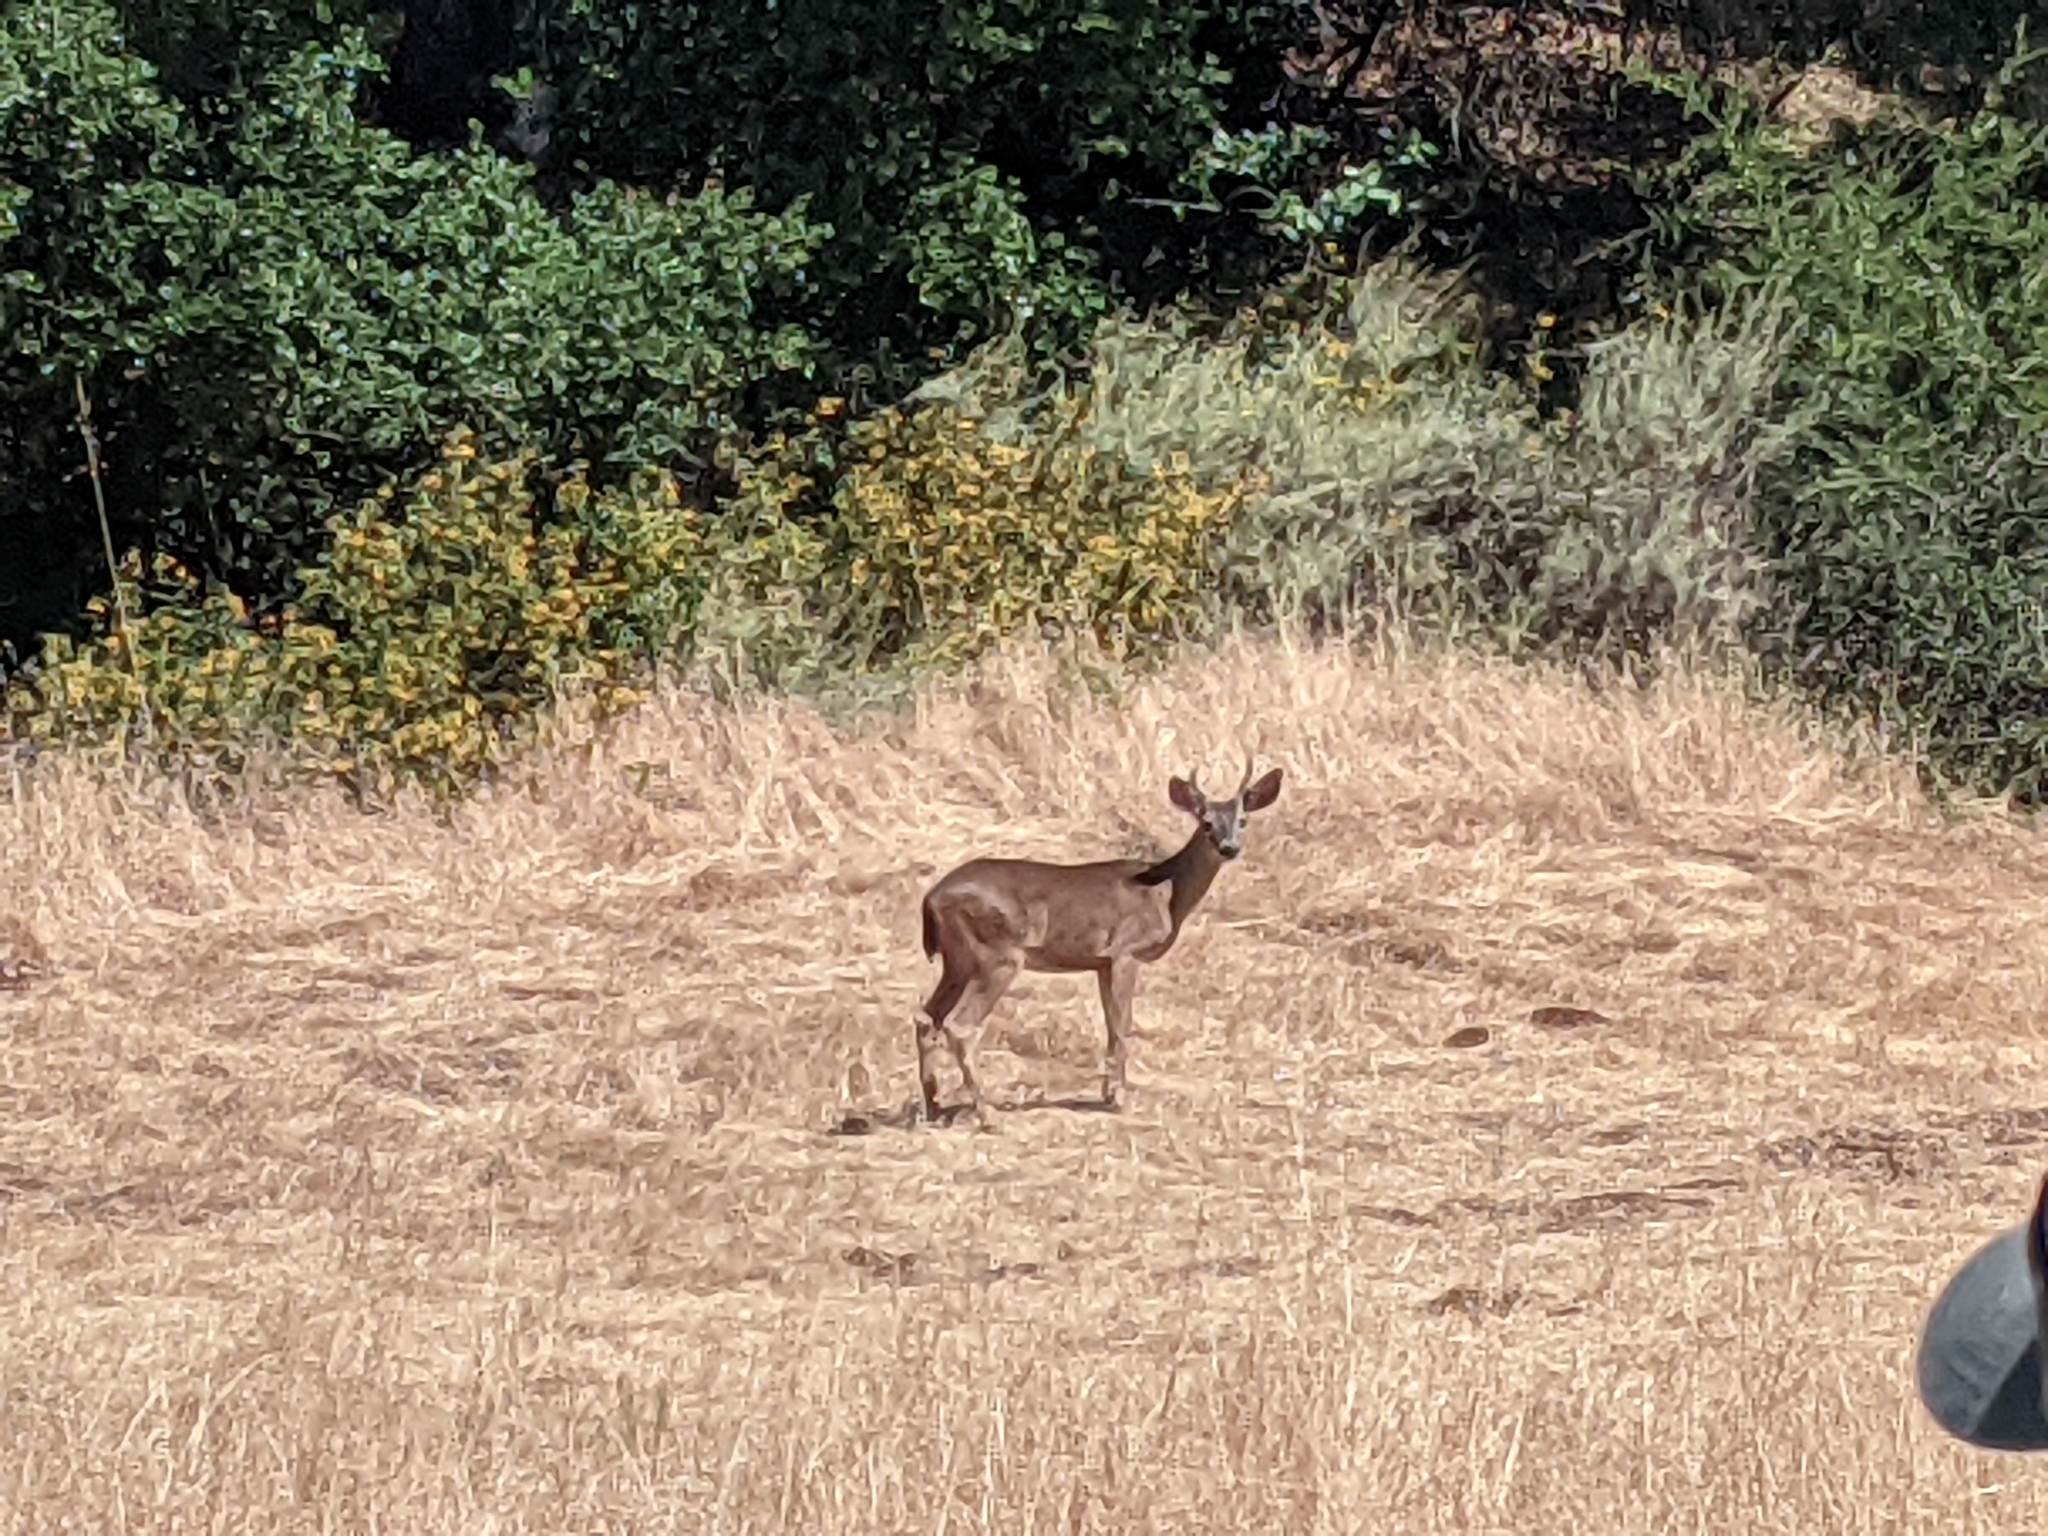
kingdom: Animalia
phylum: Chordata
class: Mammalia
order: Artiodactyla
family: Cervidae
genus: Odocoileus
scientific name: Odocoileus hemionus
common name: Mule deer
